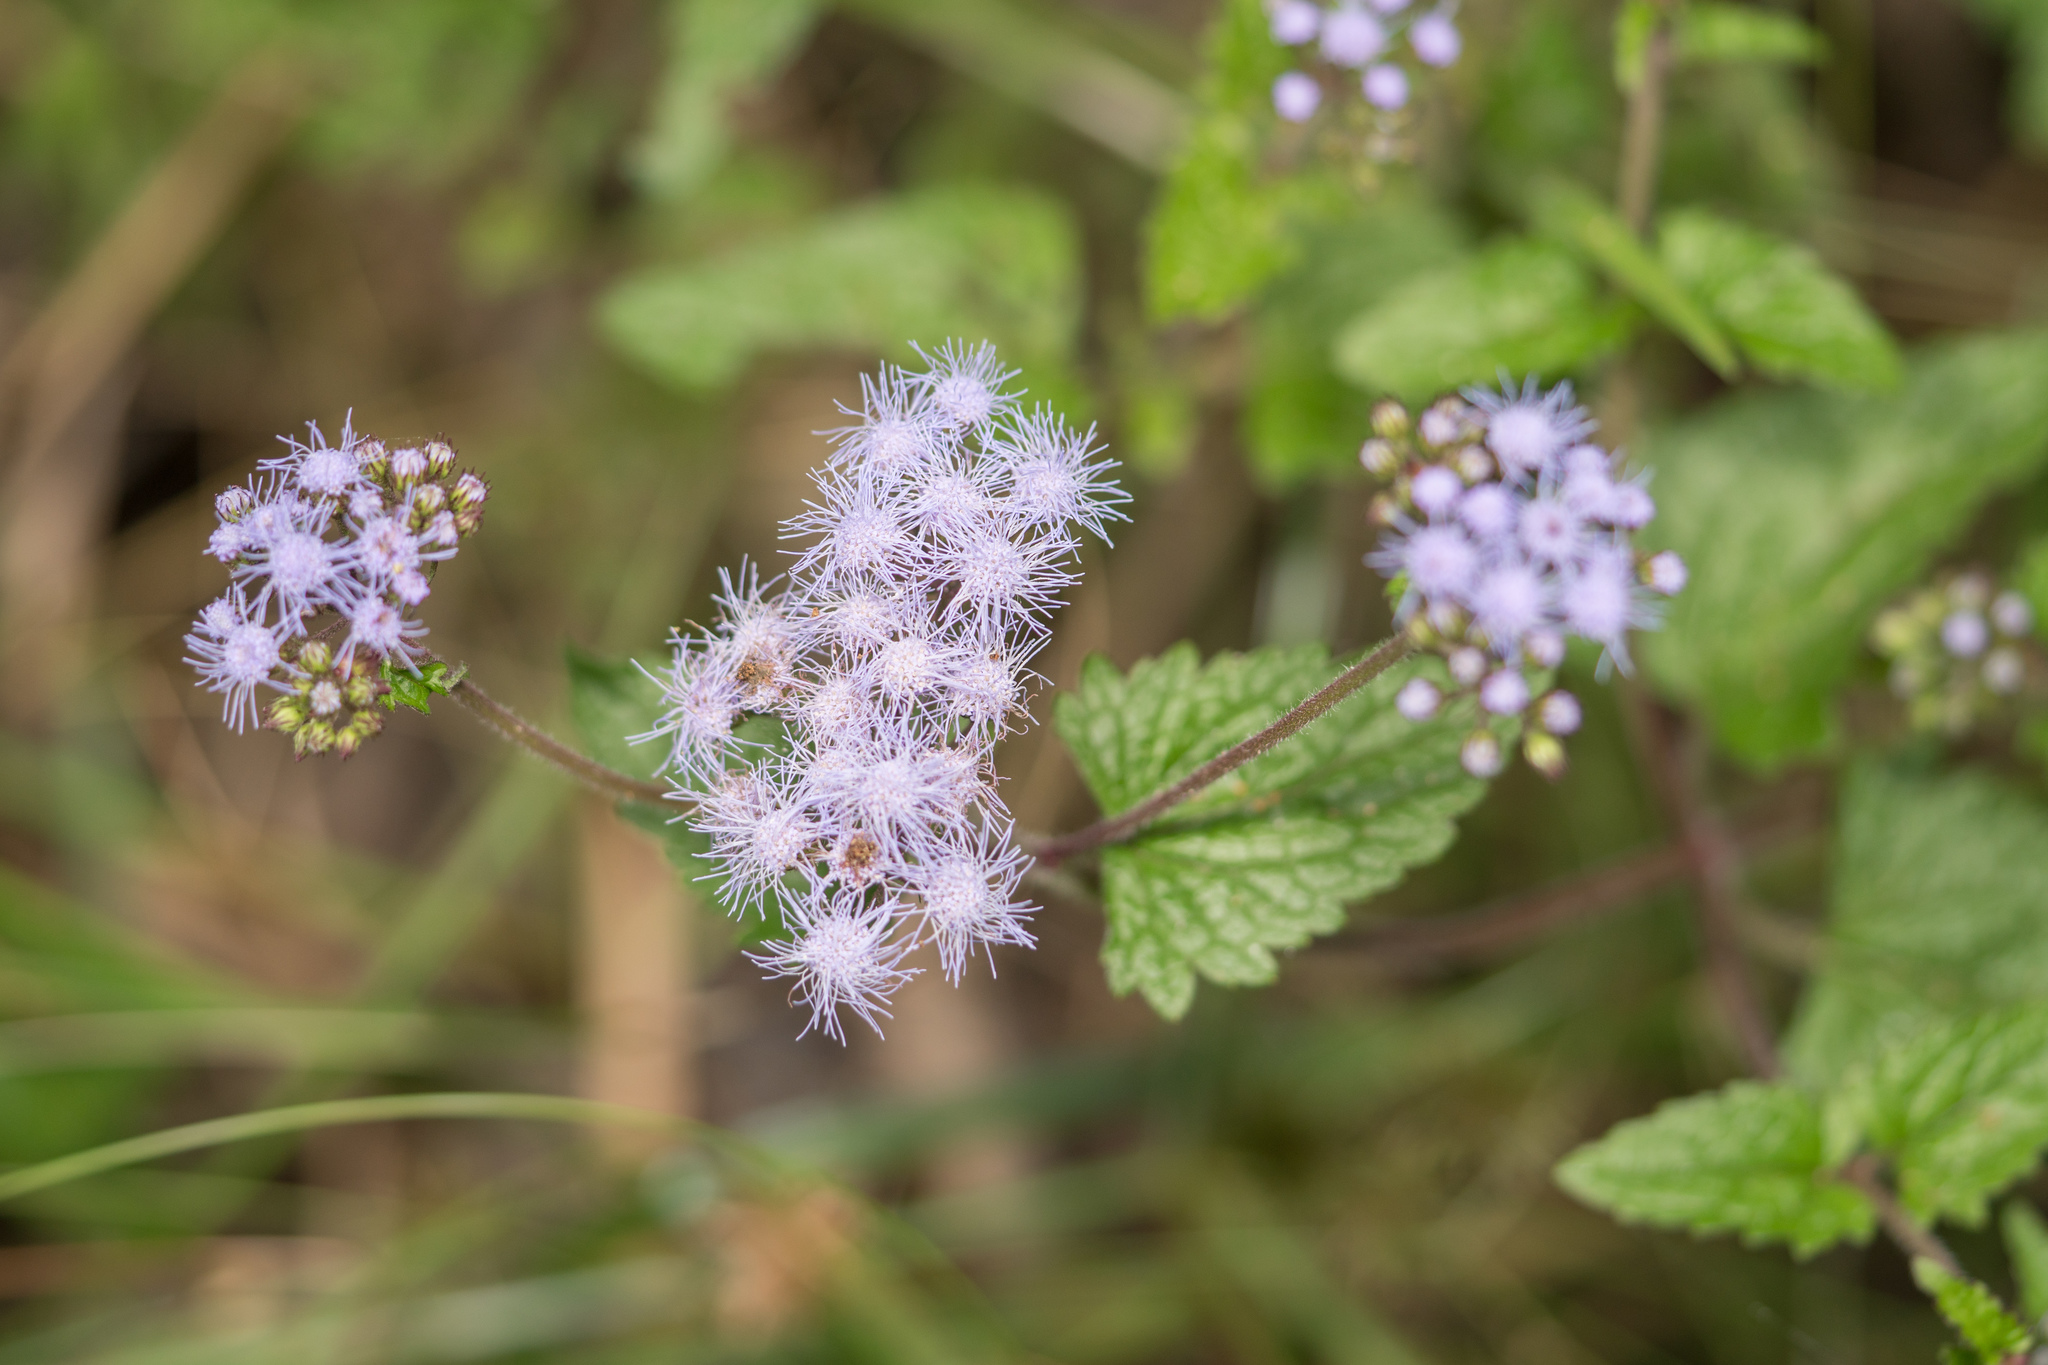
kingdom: Plantae
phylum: Tracheophyta
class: Magnoliopsida
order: Asterales
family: Asteraceae
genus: Conoclinium
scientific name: Conoclinium coelestinum
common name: Blue mistflower
